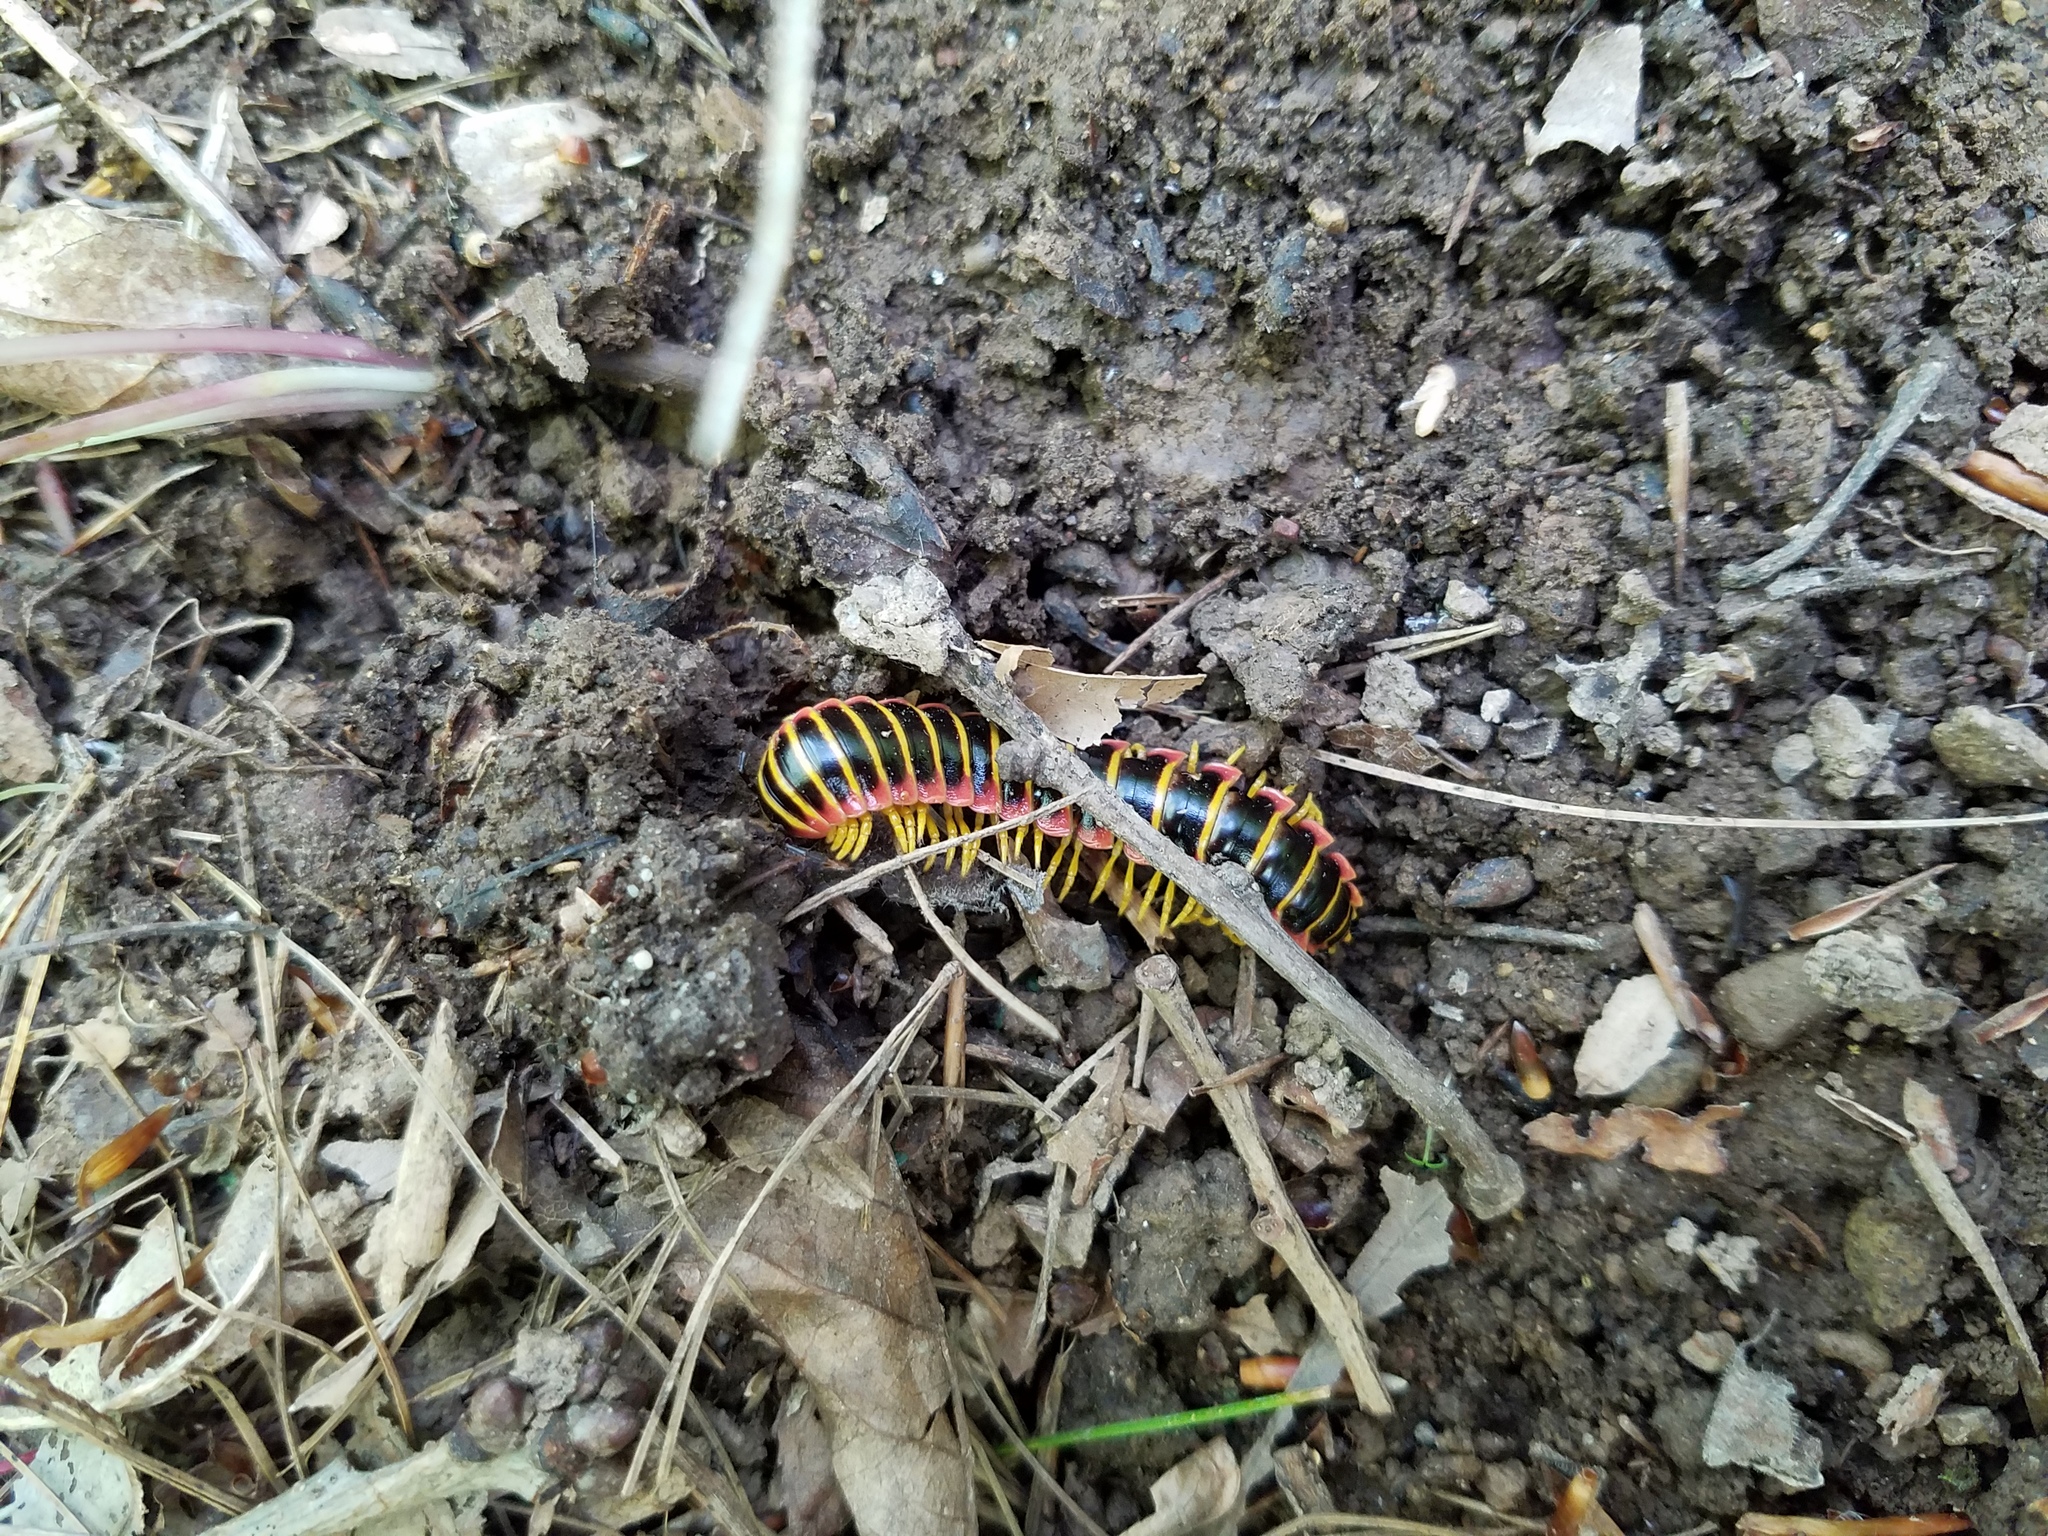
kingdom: Animalia
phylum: Arthropoda
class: Diplopoda
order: Polydesmida
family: Xystodesmidae
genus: Apheloria
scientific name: Apheloria virginiensis
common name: Black-and-gold flat millipede
